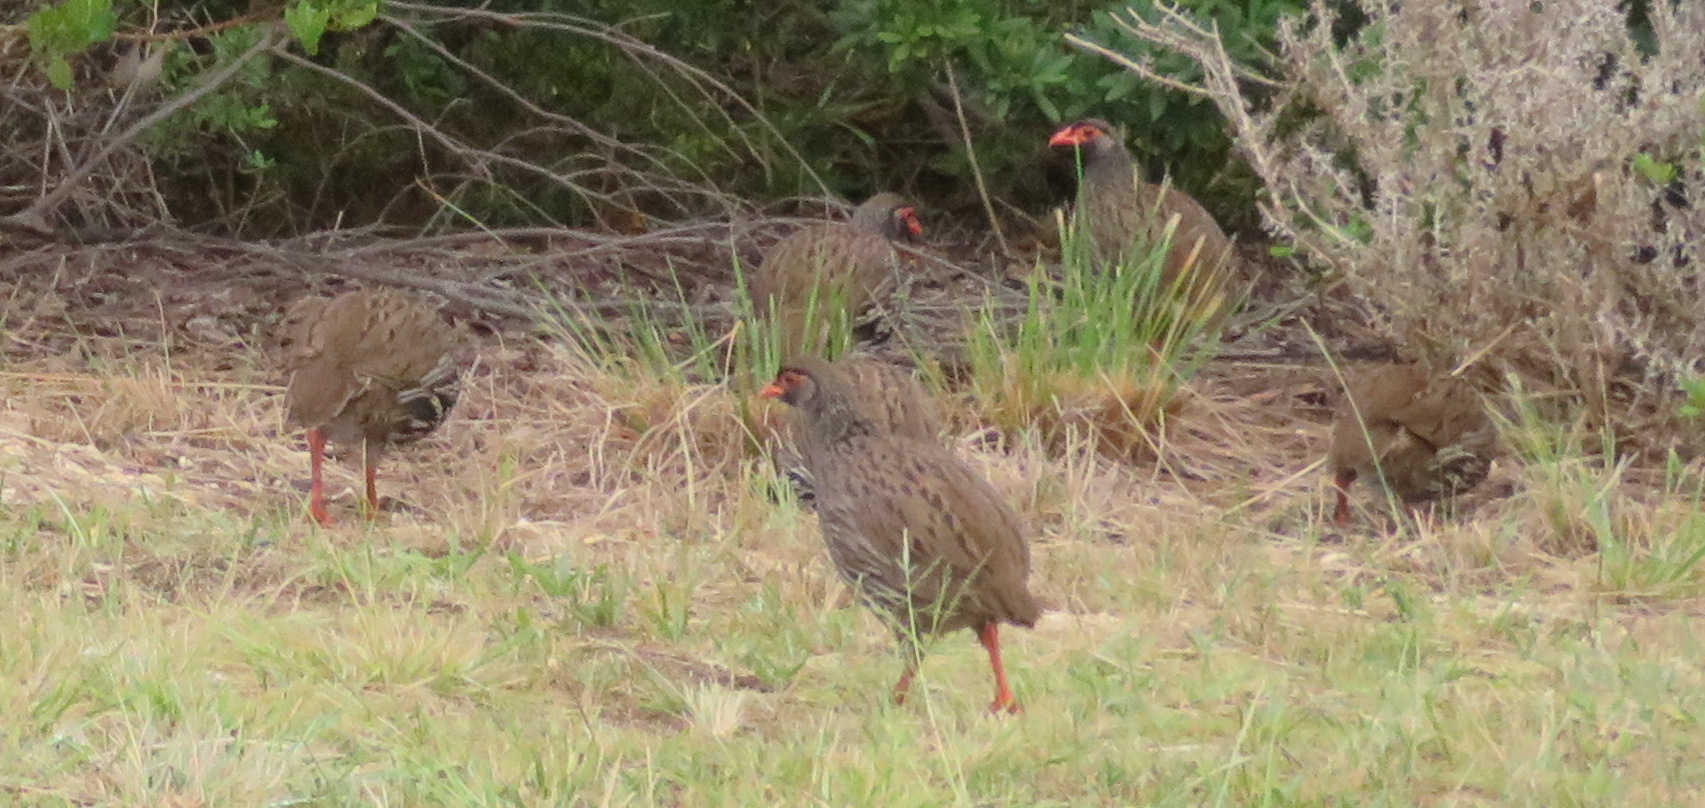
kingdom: Animalia
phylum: Chordata
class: Aves
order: Galliformes
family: Phasianidae
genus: Pternistis
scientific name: Pternistis afer
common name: Red-necked spurfowl
